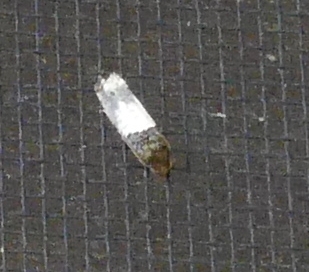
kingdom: Animalia
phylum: Arthropoda
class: Insecta
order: Lepidoptera
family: Tortricidae
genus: Epiblema
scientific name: Epiblema scudderiana
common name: Goldenrod gall moth
